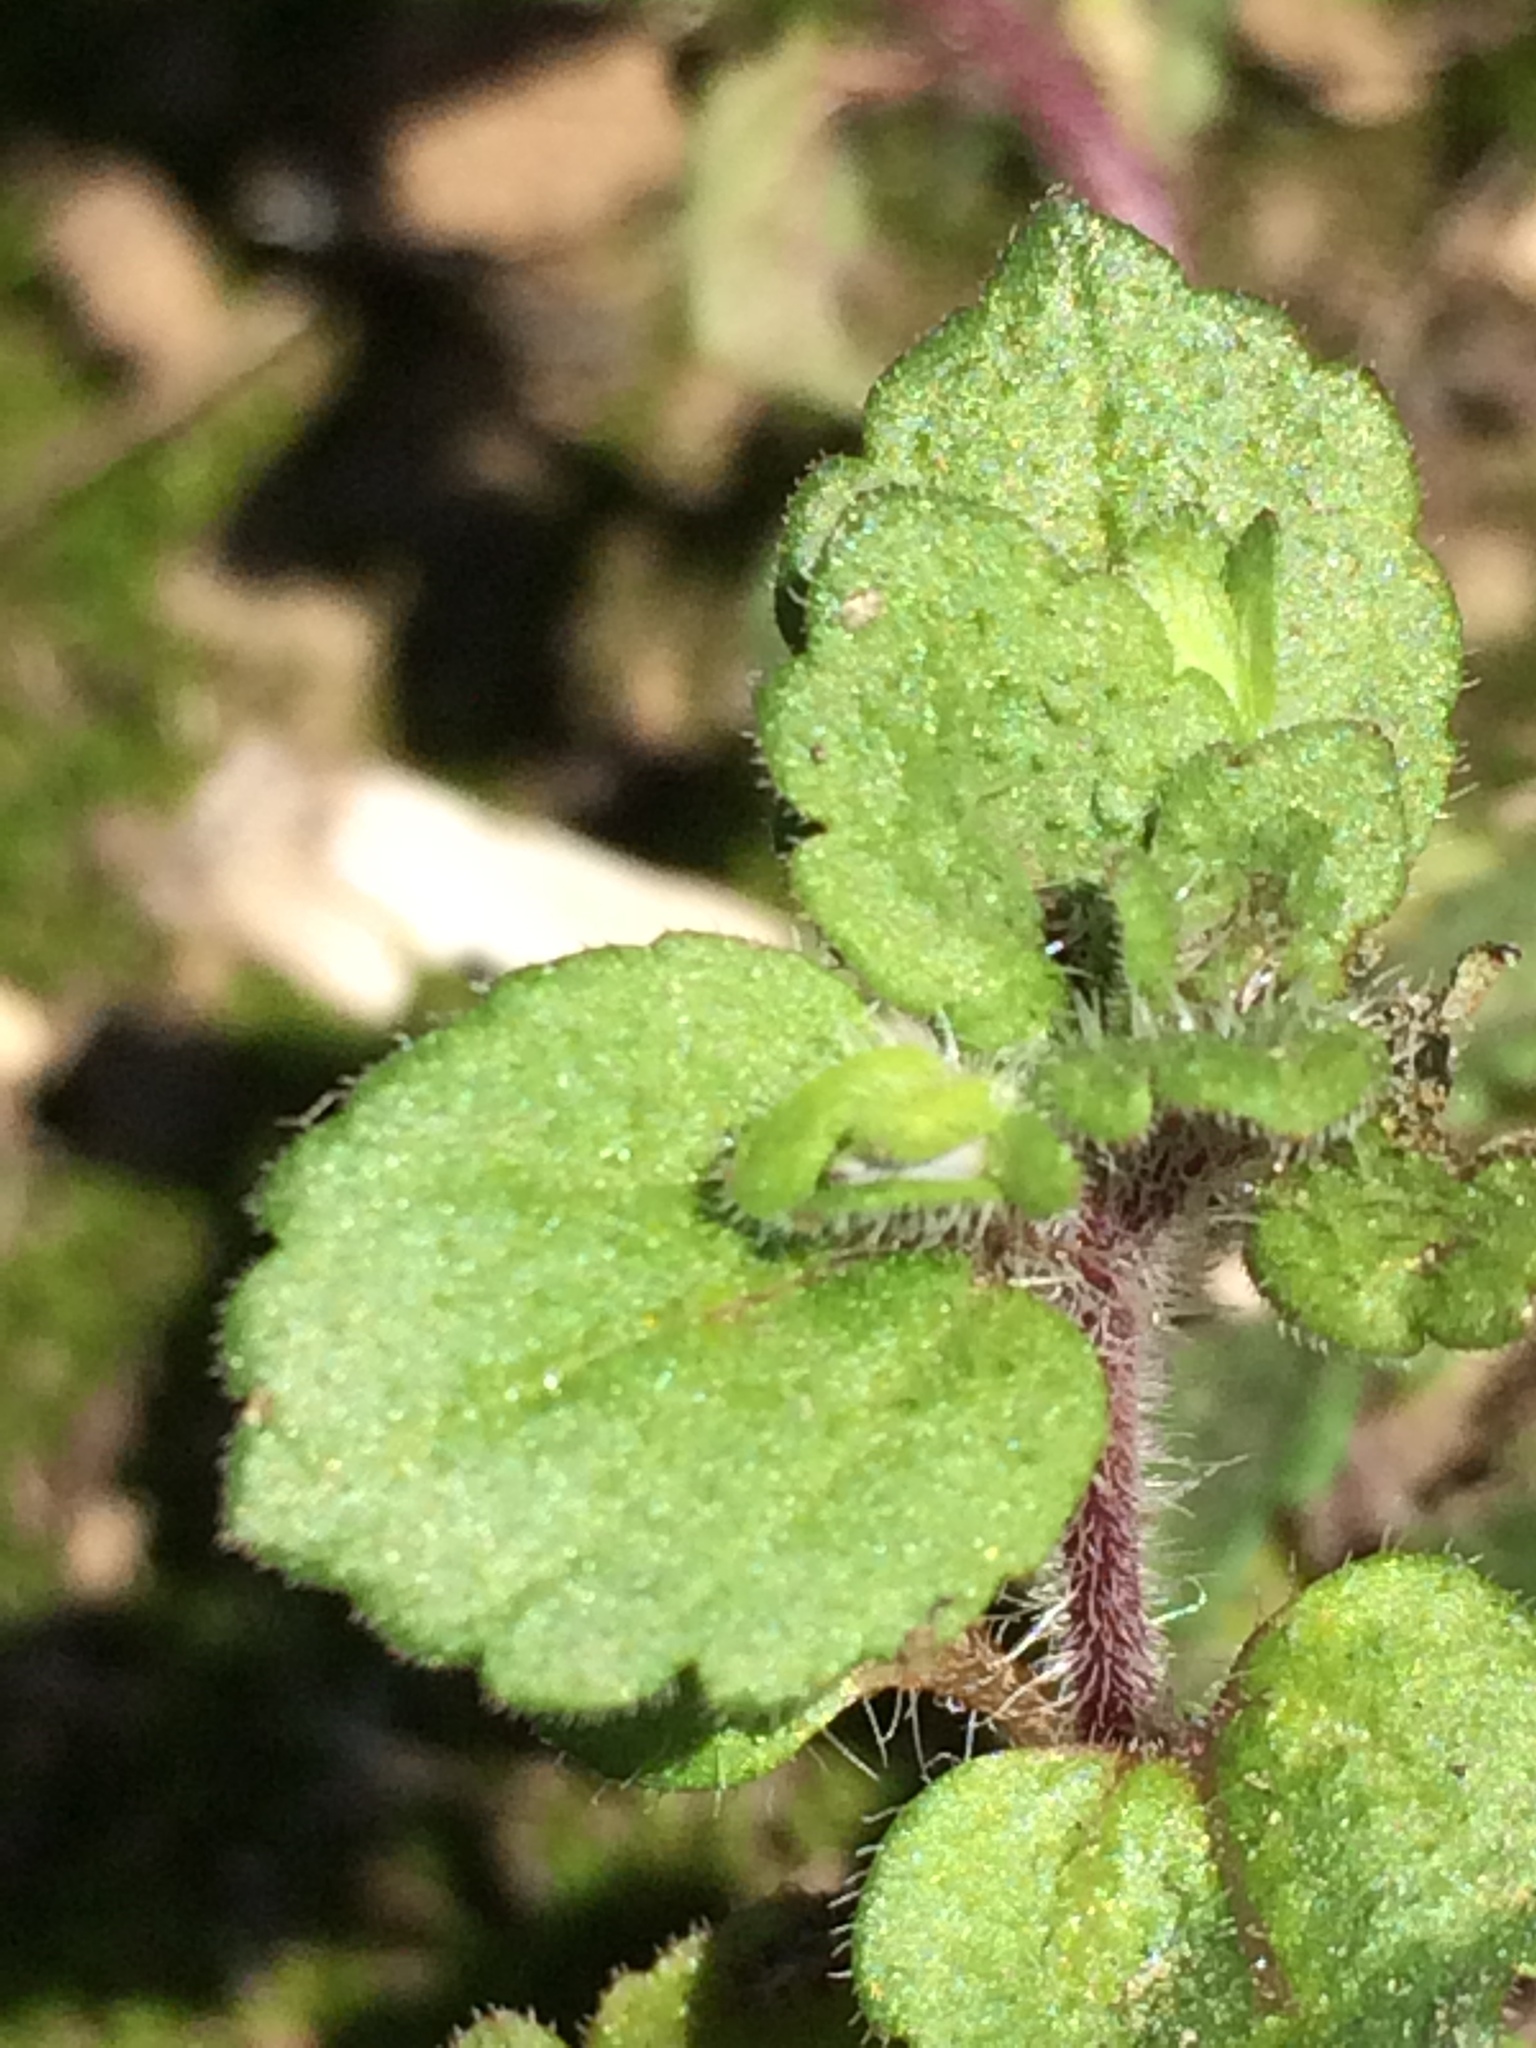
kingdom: Plantae
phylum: Tracheophyta
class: Magnoliopsida
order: Lamiales
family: Plantaginaceae
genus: Veronica
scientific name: Veronica persica
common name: Common field-speedwell
